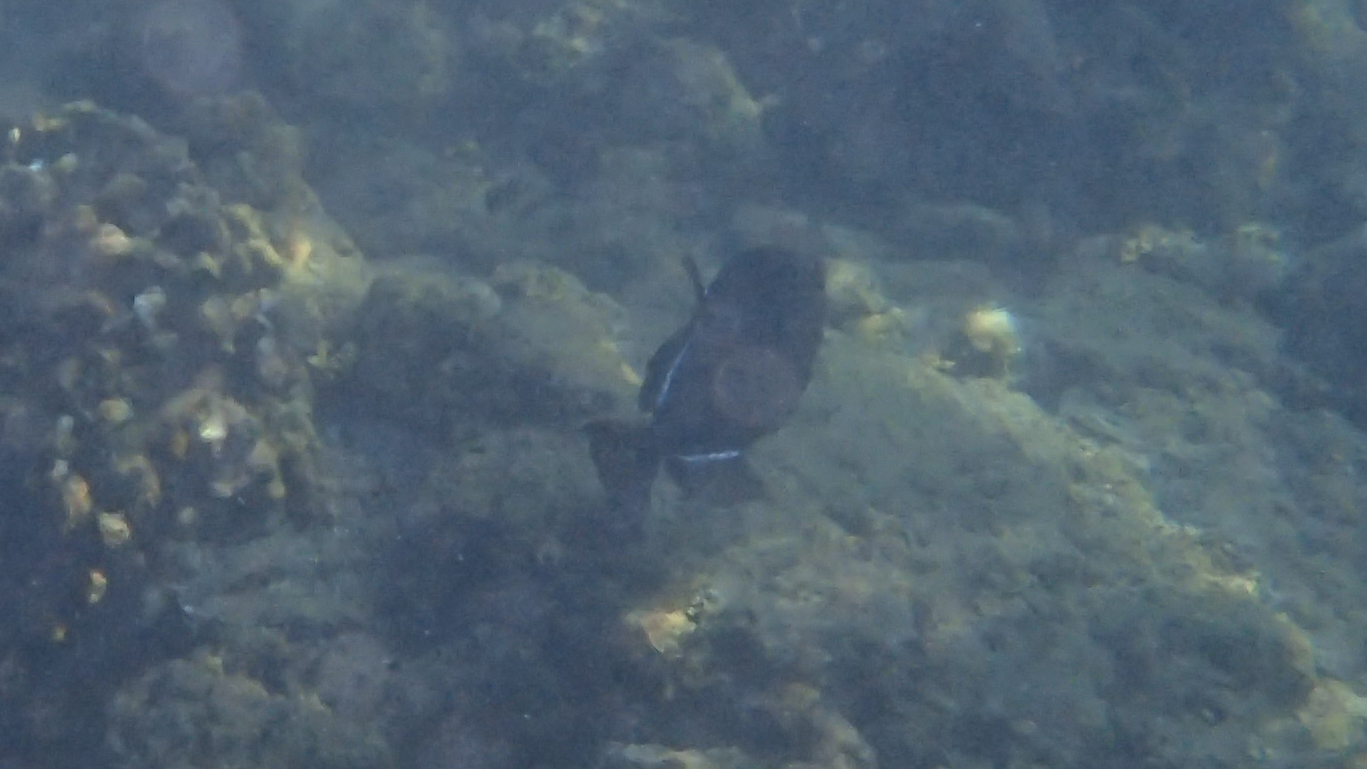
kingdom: Animalia
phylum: Chordata
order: Tetraodontiformes
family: Balistidae
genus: Melichthys
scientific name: Melichthys niger
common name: Black durgon
